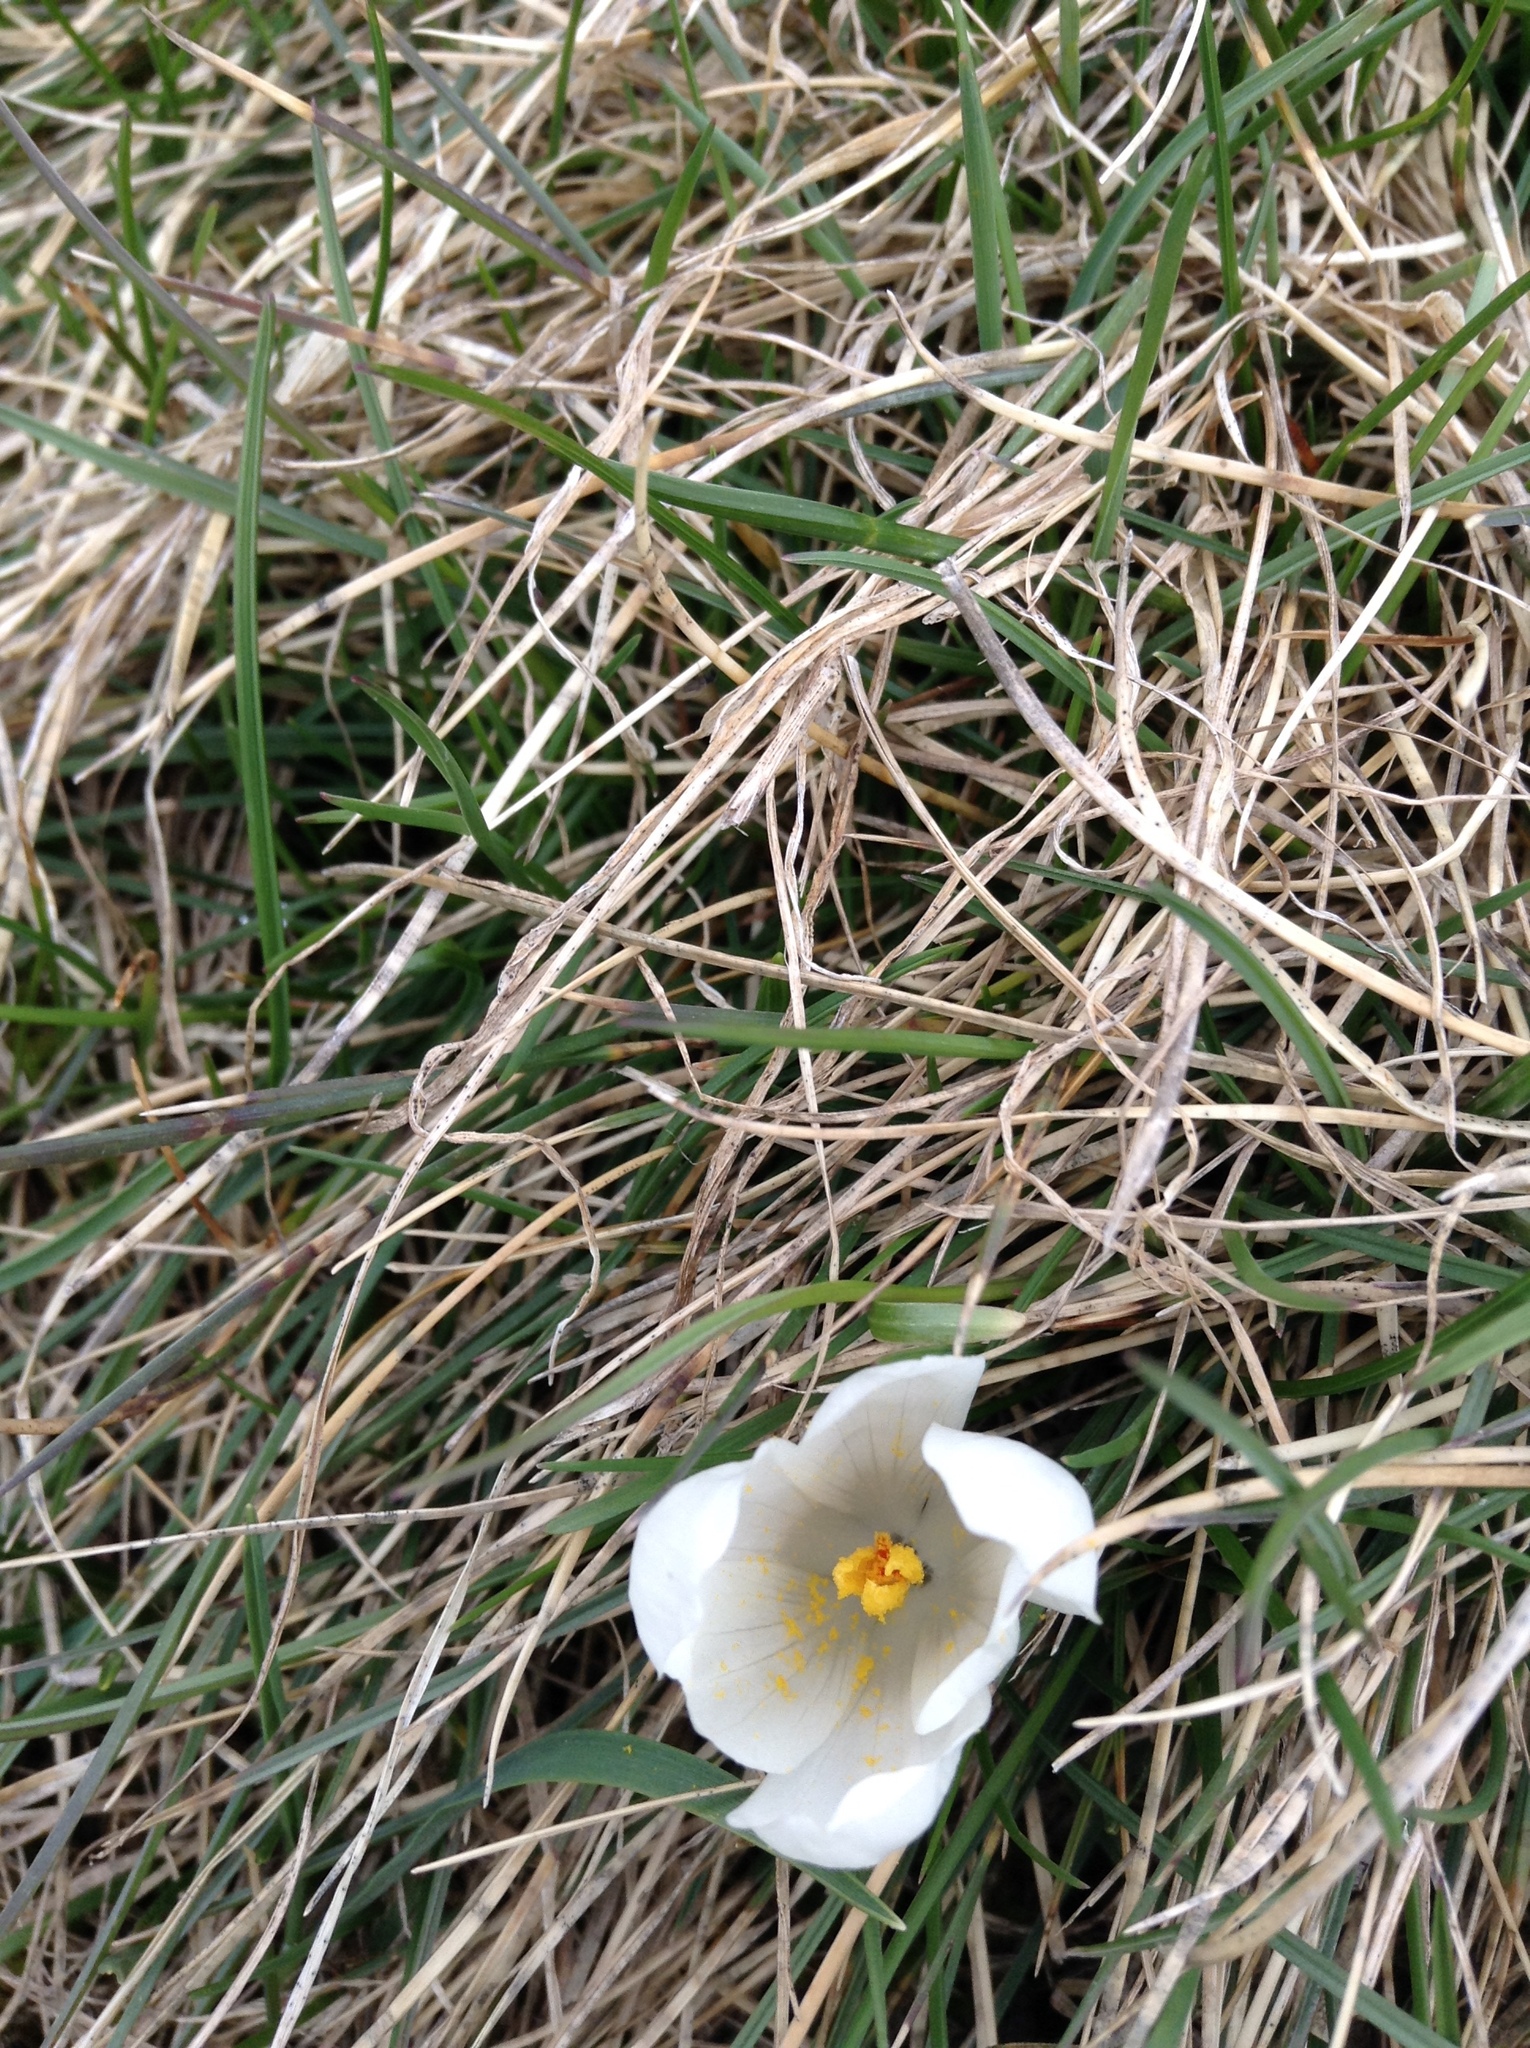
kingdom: Plantae
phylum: Tracheophyta
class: Liliopsida
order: Asparagales
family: Iridaceae
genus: Crocus
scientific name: Crocus vernus
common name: Spring crocus
